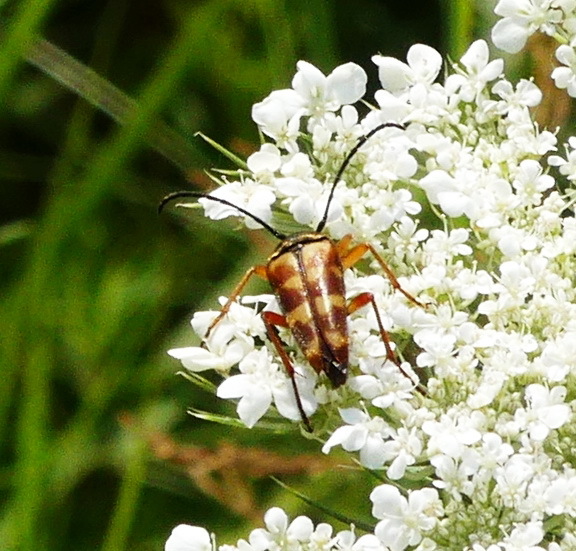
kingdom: Animalia
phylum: Arthropoda
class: Insecta
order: Coleoptera
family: Cerambycidae
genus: Typocerus
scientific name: Typocerus velutinus
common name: Banded longhorn beetle
